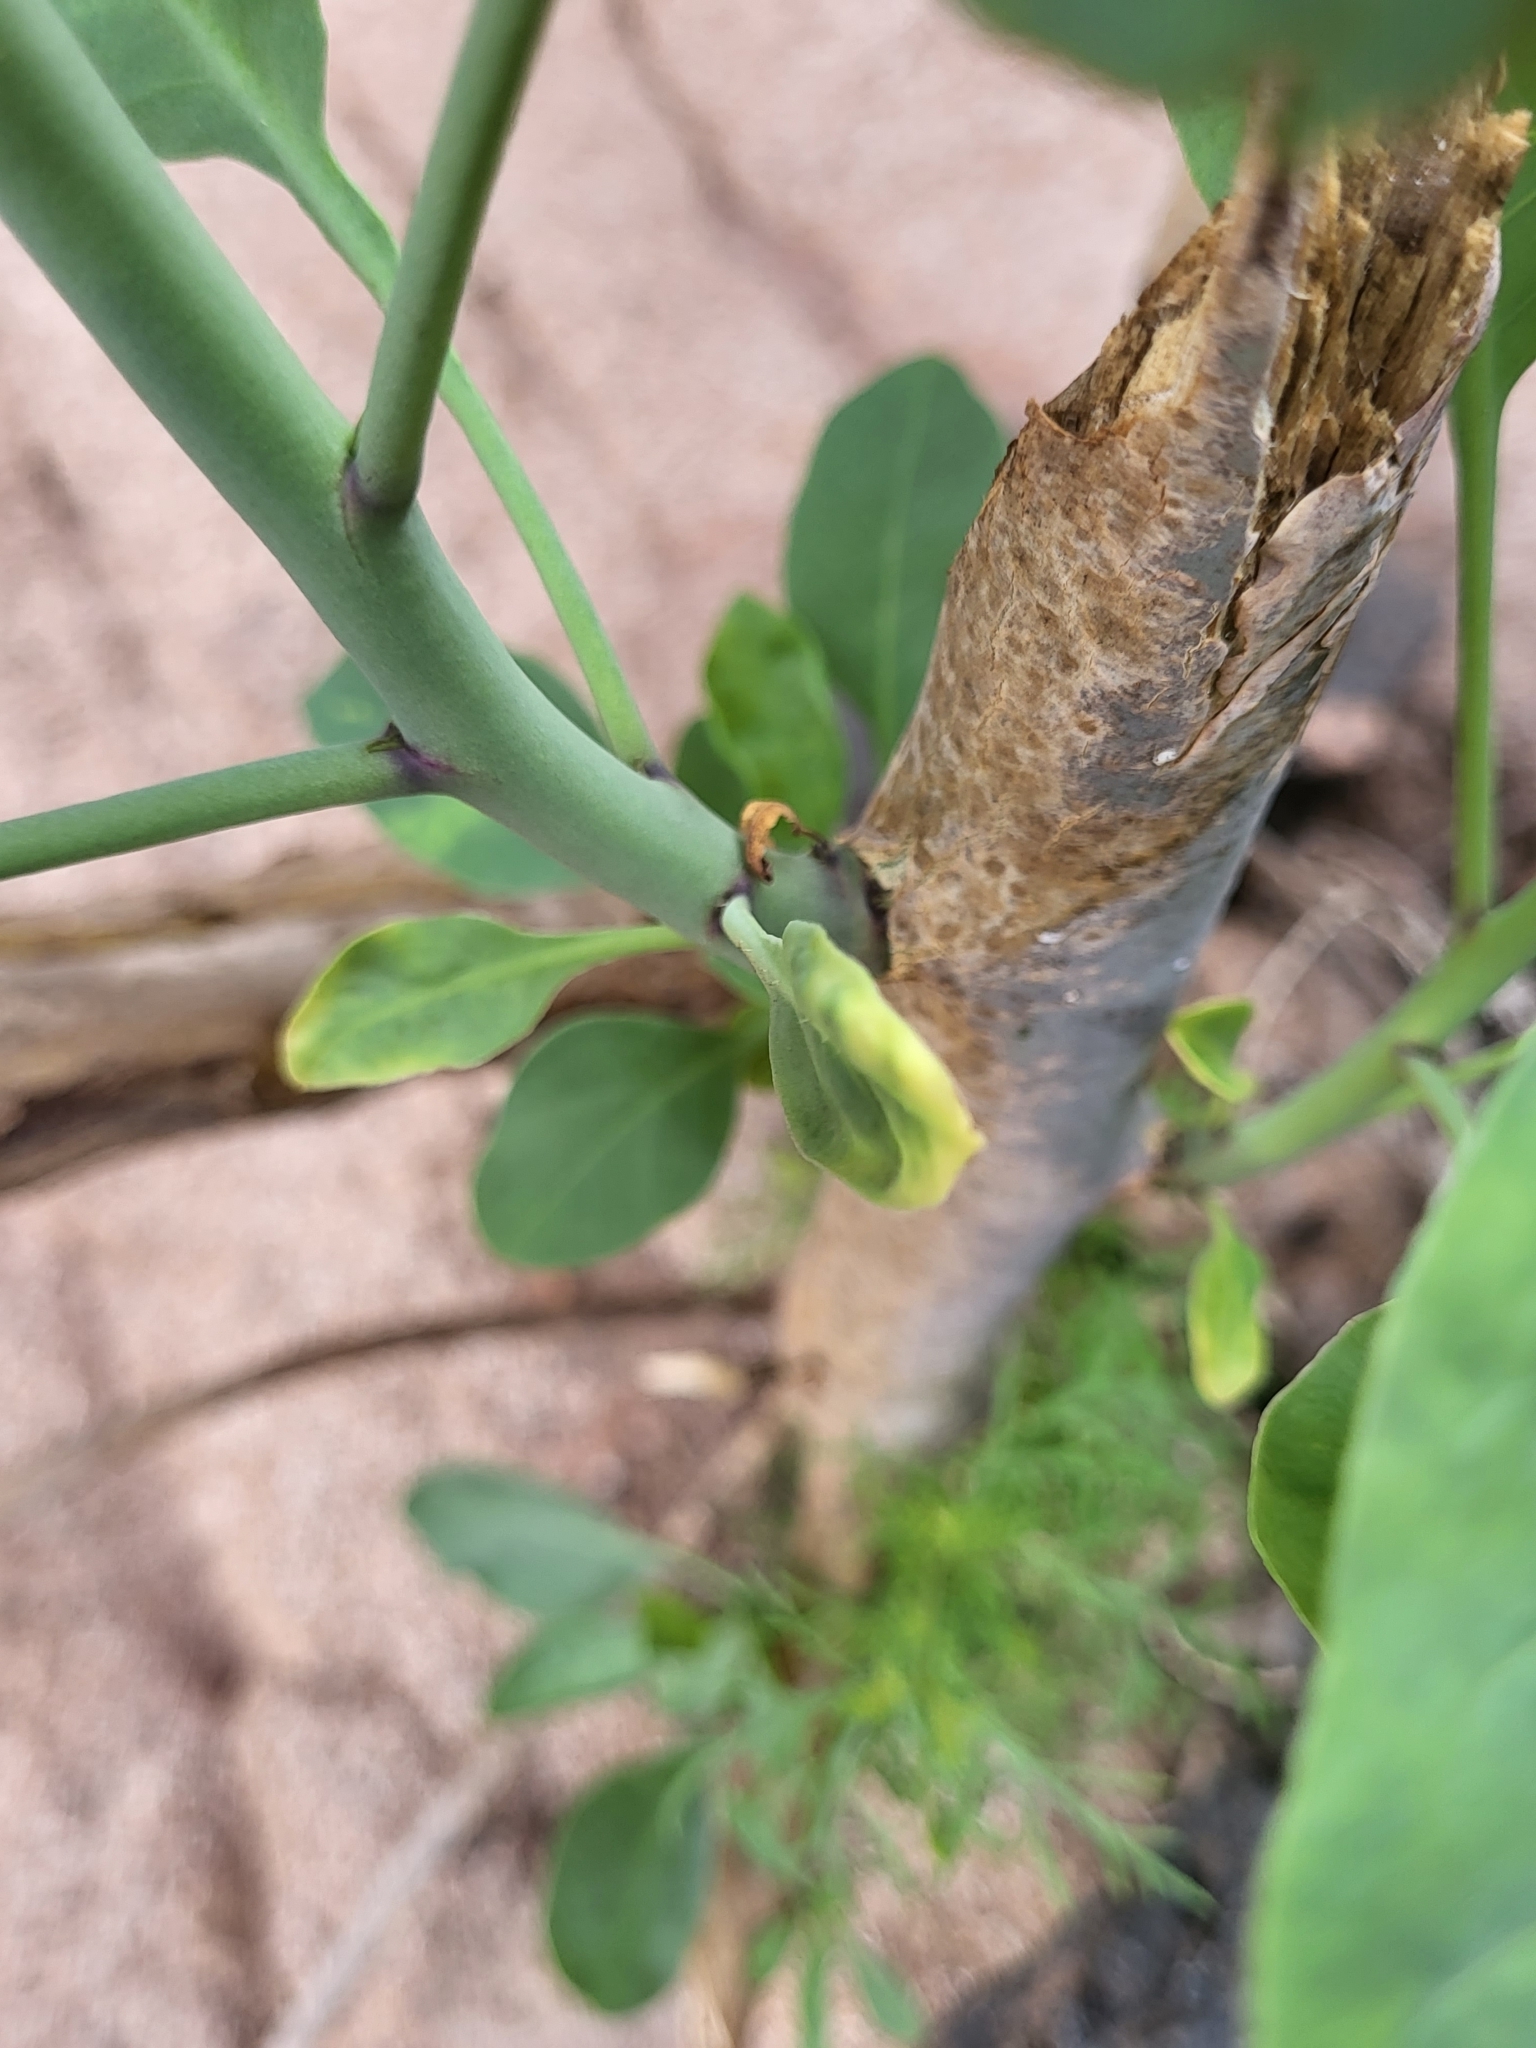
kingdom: Plantae
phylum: Tracheophyta
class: Magnoliopsida
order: Solanales
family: Solanaceae
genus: Nicotiana
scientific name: Nicotiana glauca
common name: Tree tobacco
